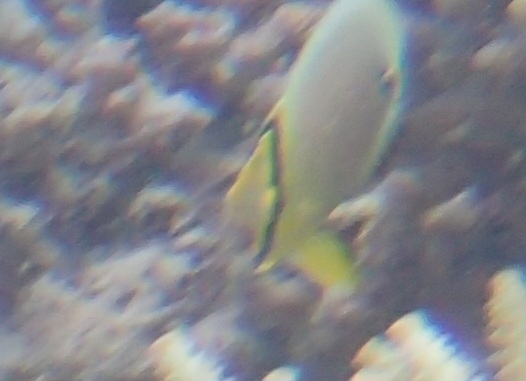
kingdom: Animalia
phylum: Chordata
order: Perciformes
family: Chaetodontidae
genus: Chaetodon
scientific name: Chaetodon lunulatus
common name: Redfin butterflyfish
